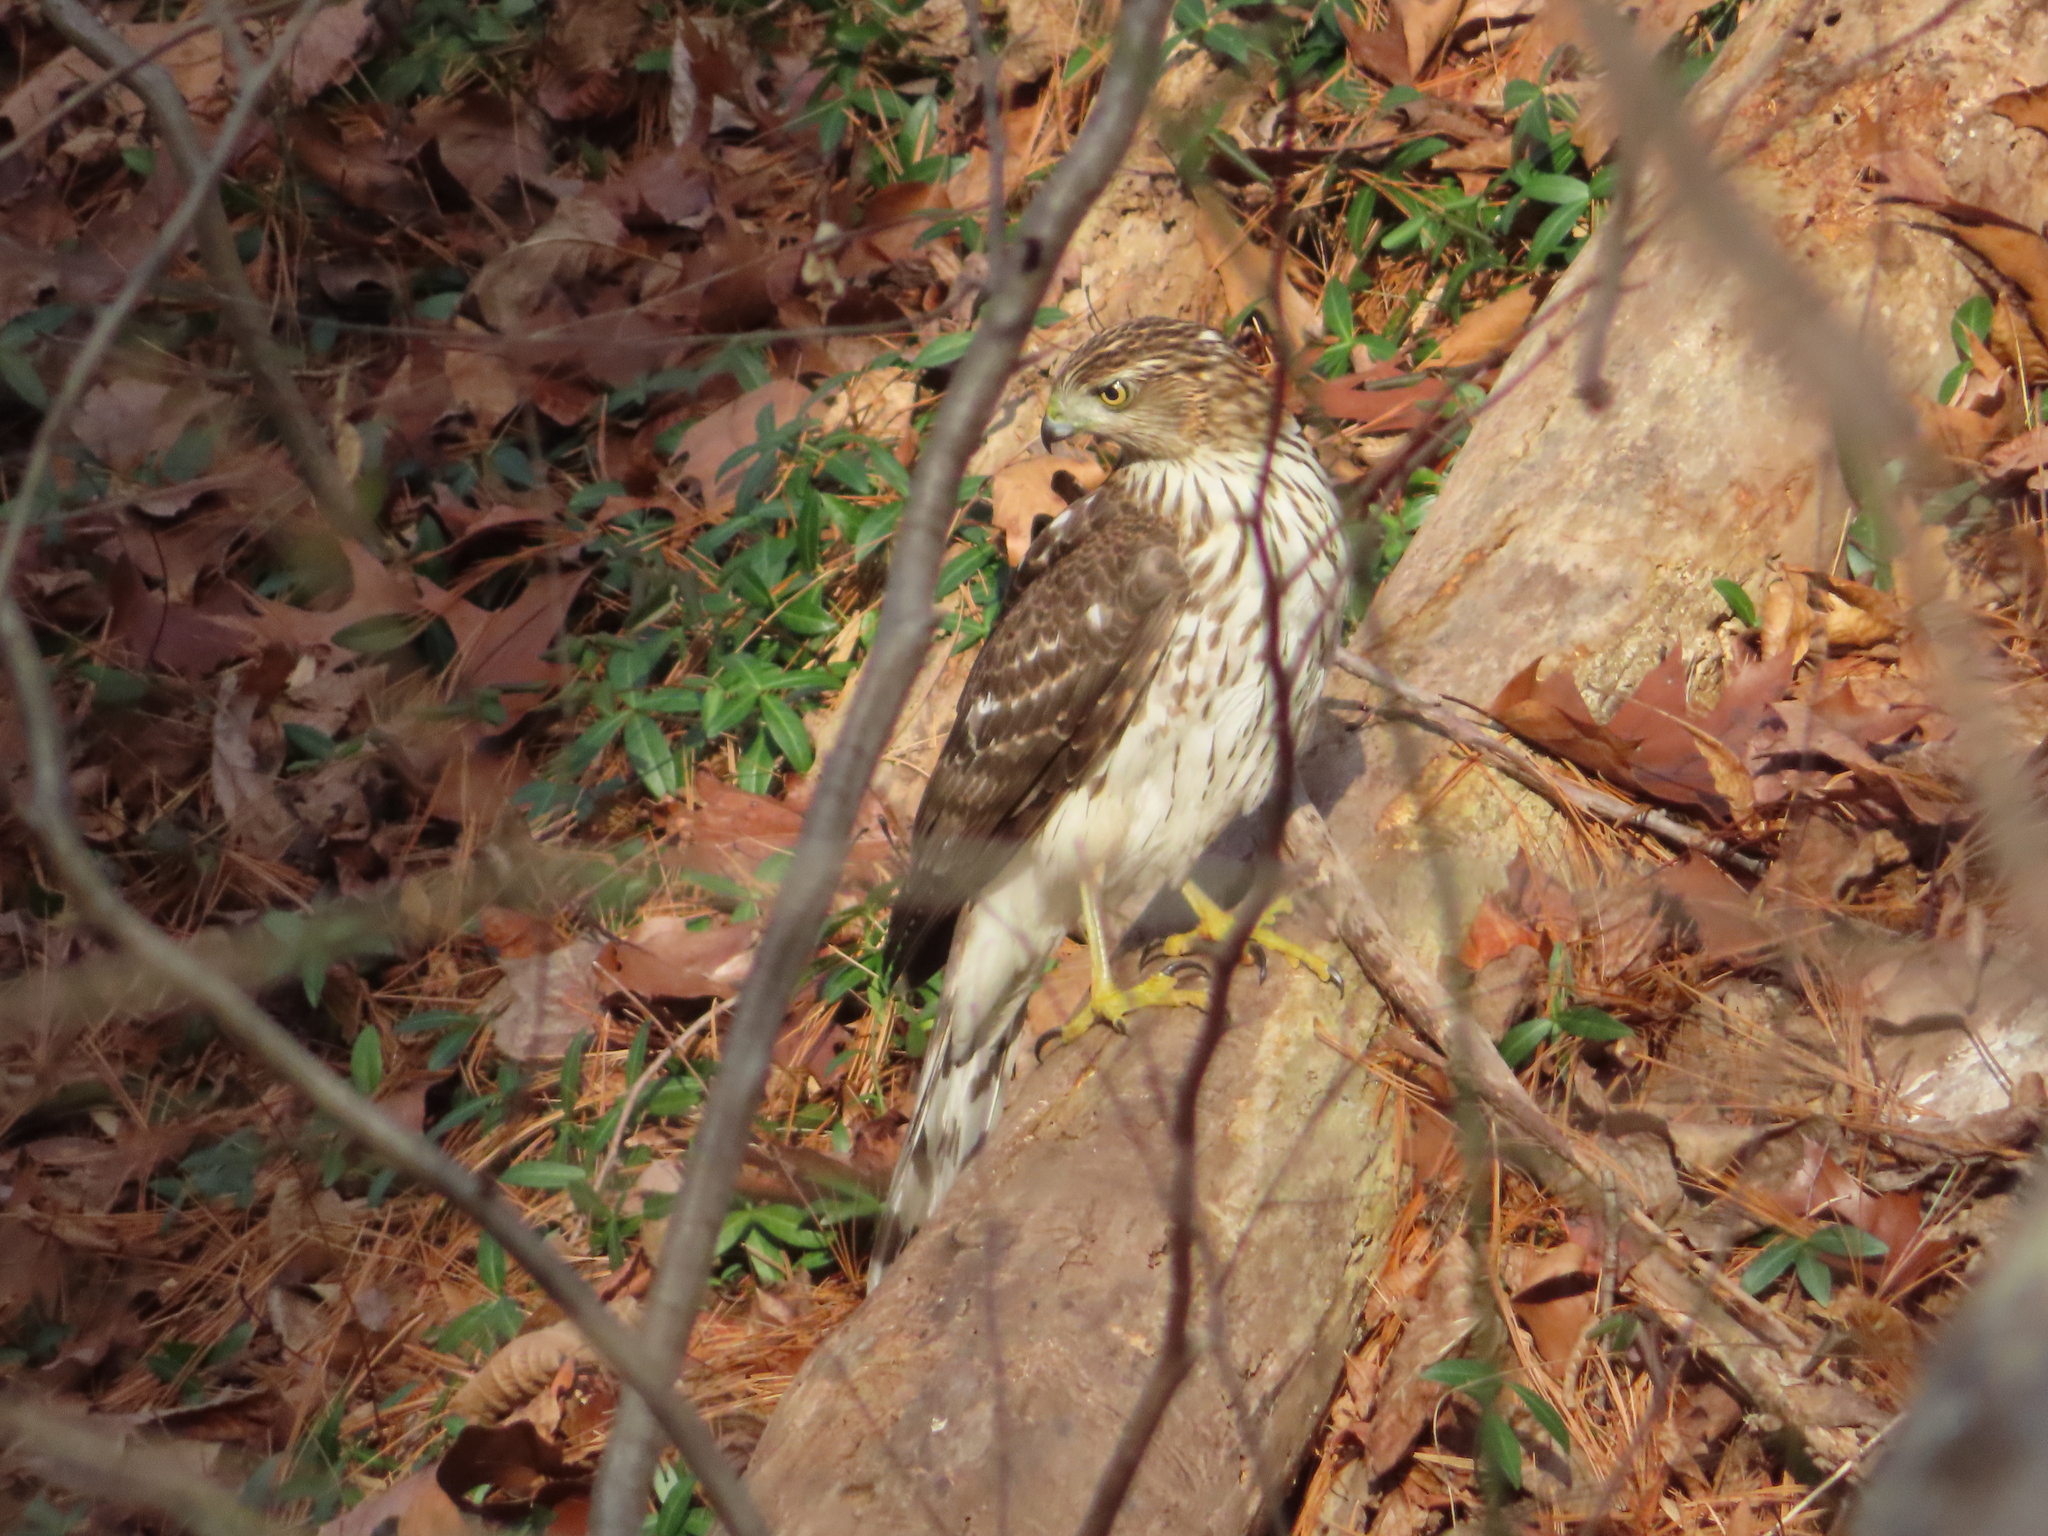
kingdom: Animalia
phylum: Chordata
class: Aves
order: Accipitriformes
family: Accipitridae
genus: Accipiter
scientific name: Accipiter cooperii
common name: Cooper's hawk
